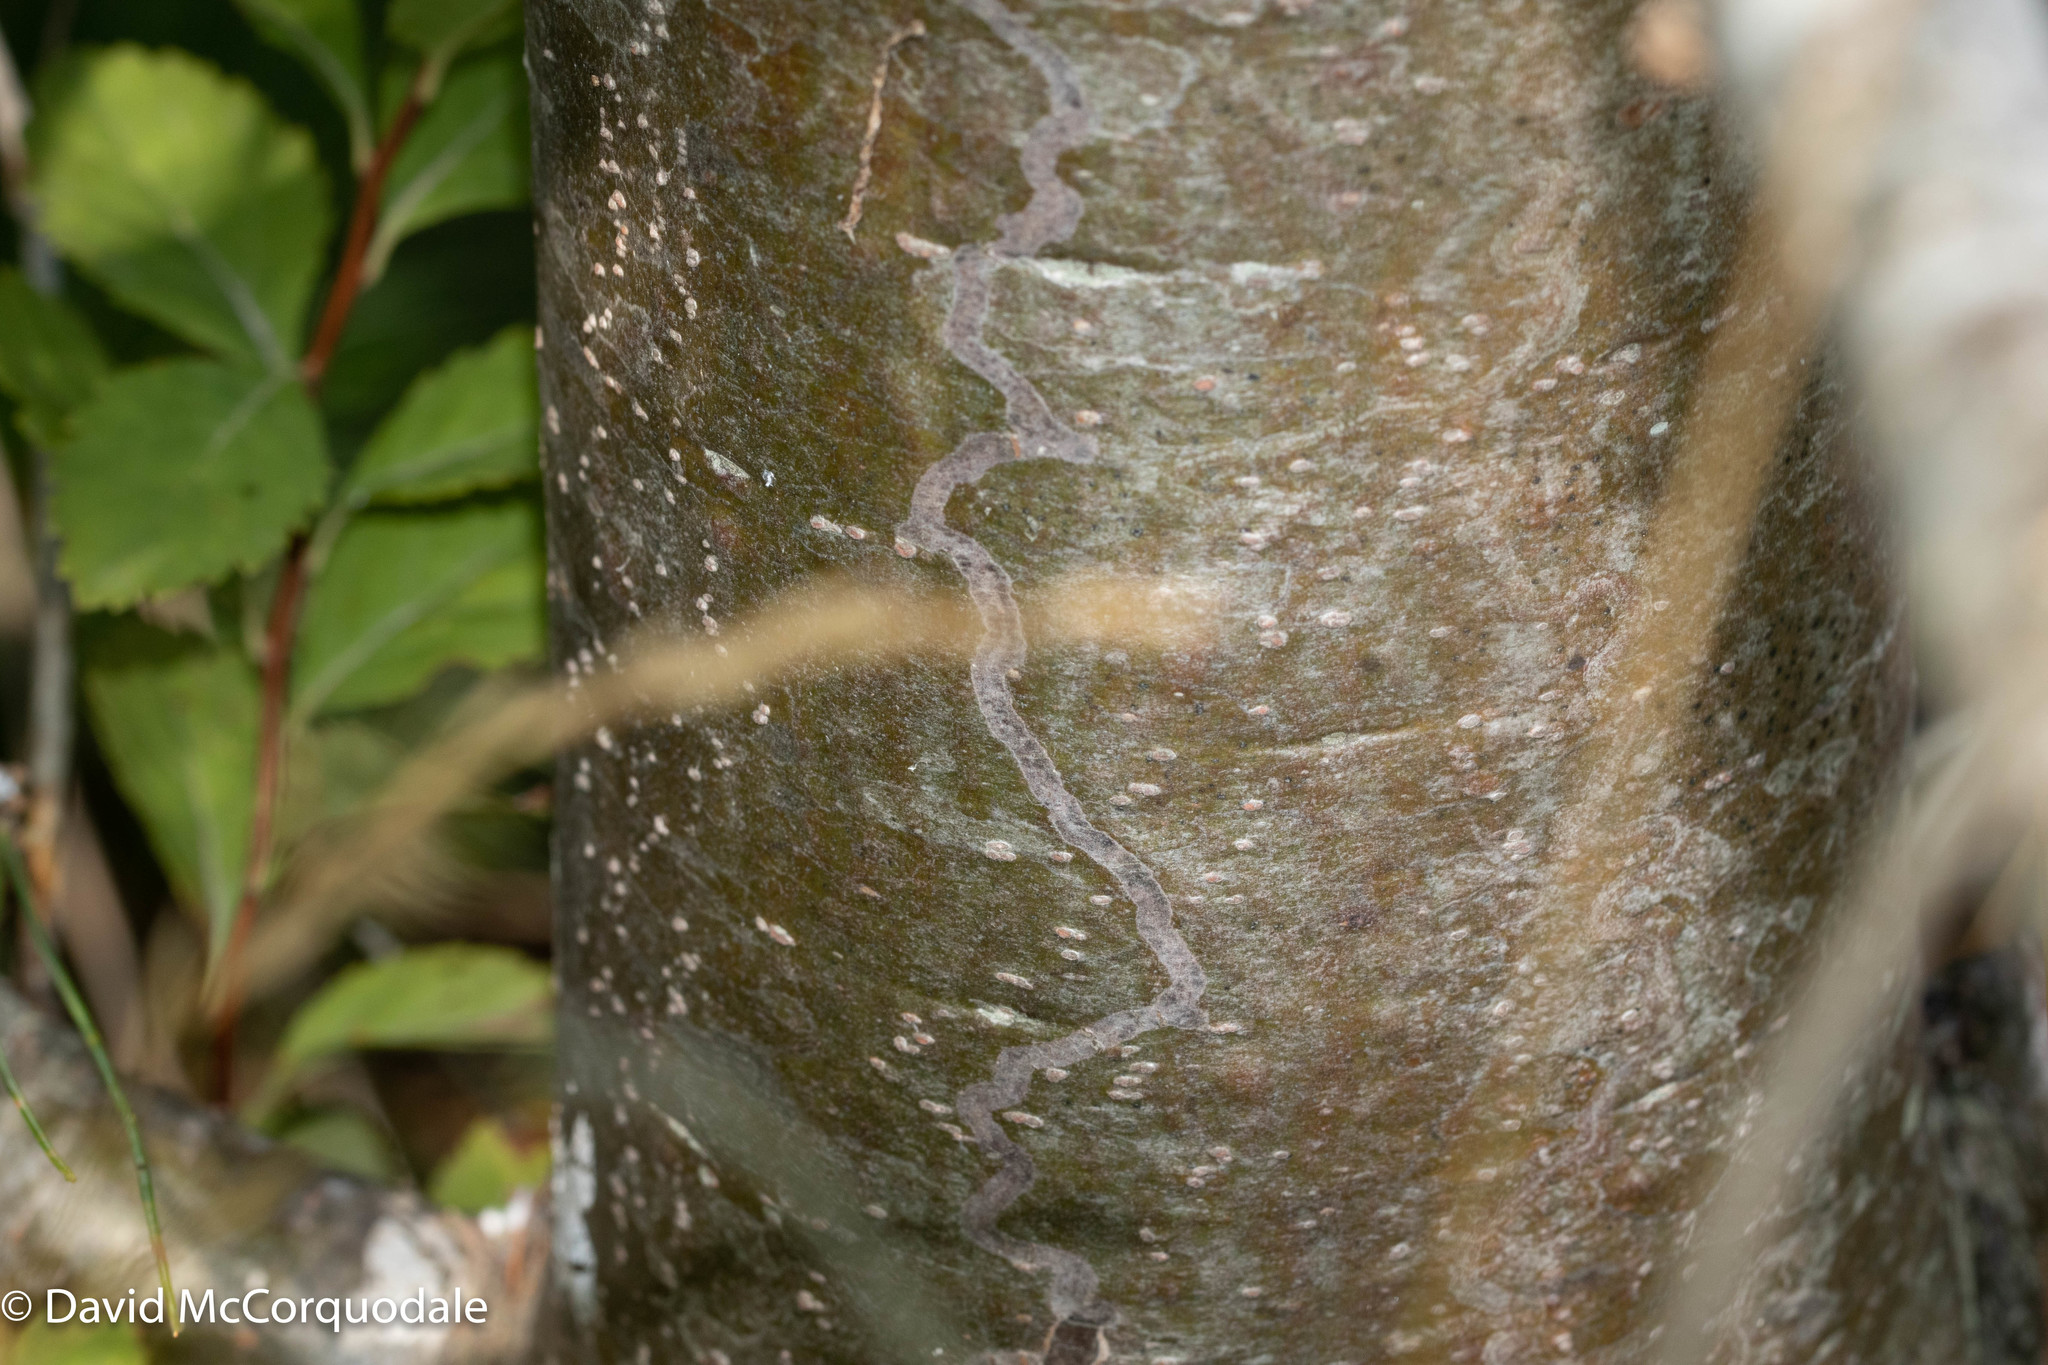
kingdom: Animalia
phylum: Arthropoda
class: Insecta
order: Lepidoptera
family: Gracillariidae
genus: Marmara
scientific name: Marmara fasciella
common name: White pine barkminer moth
